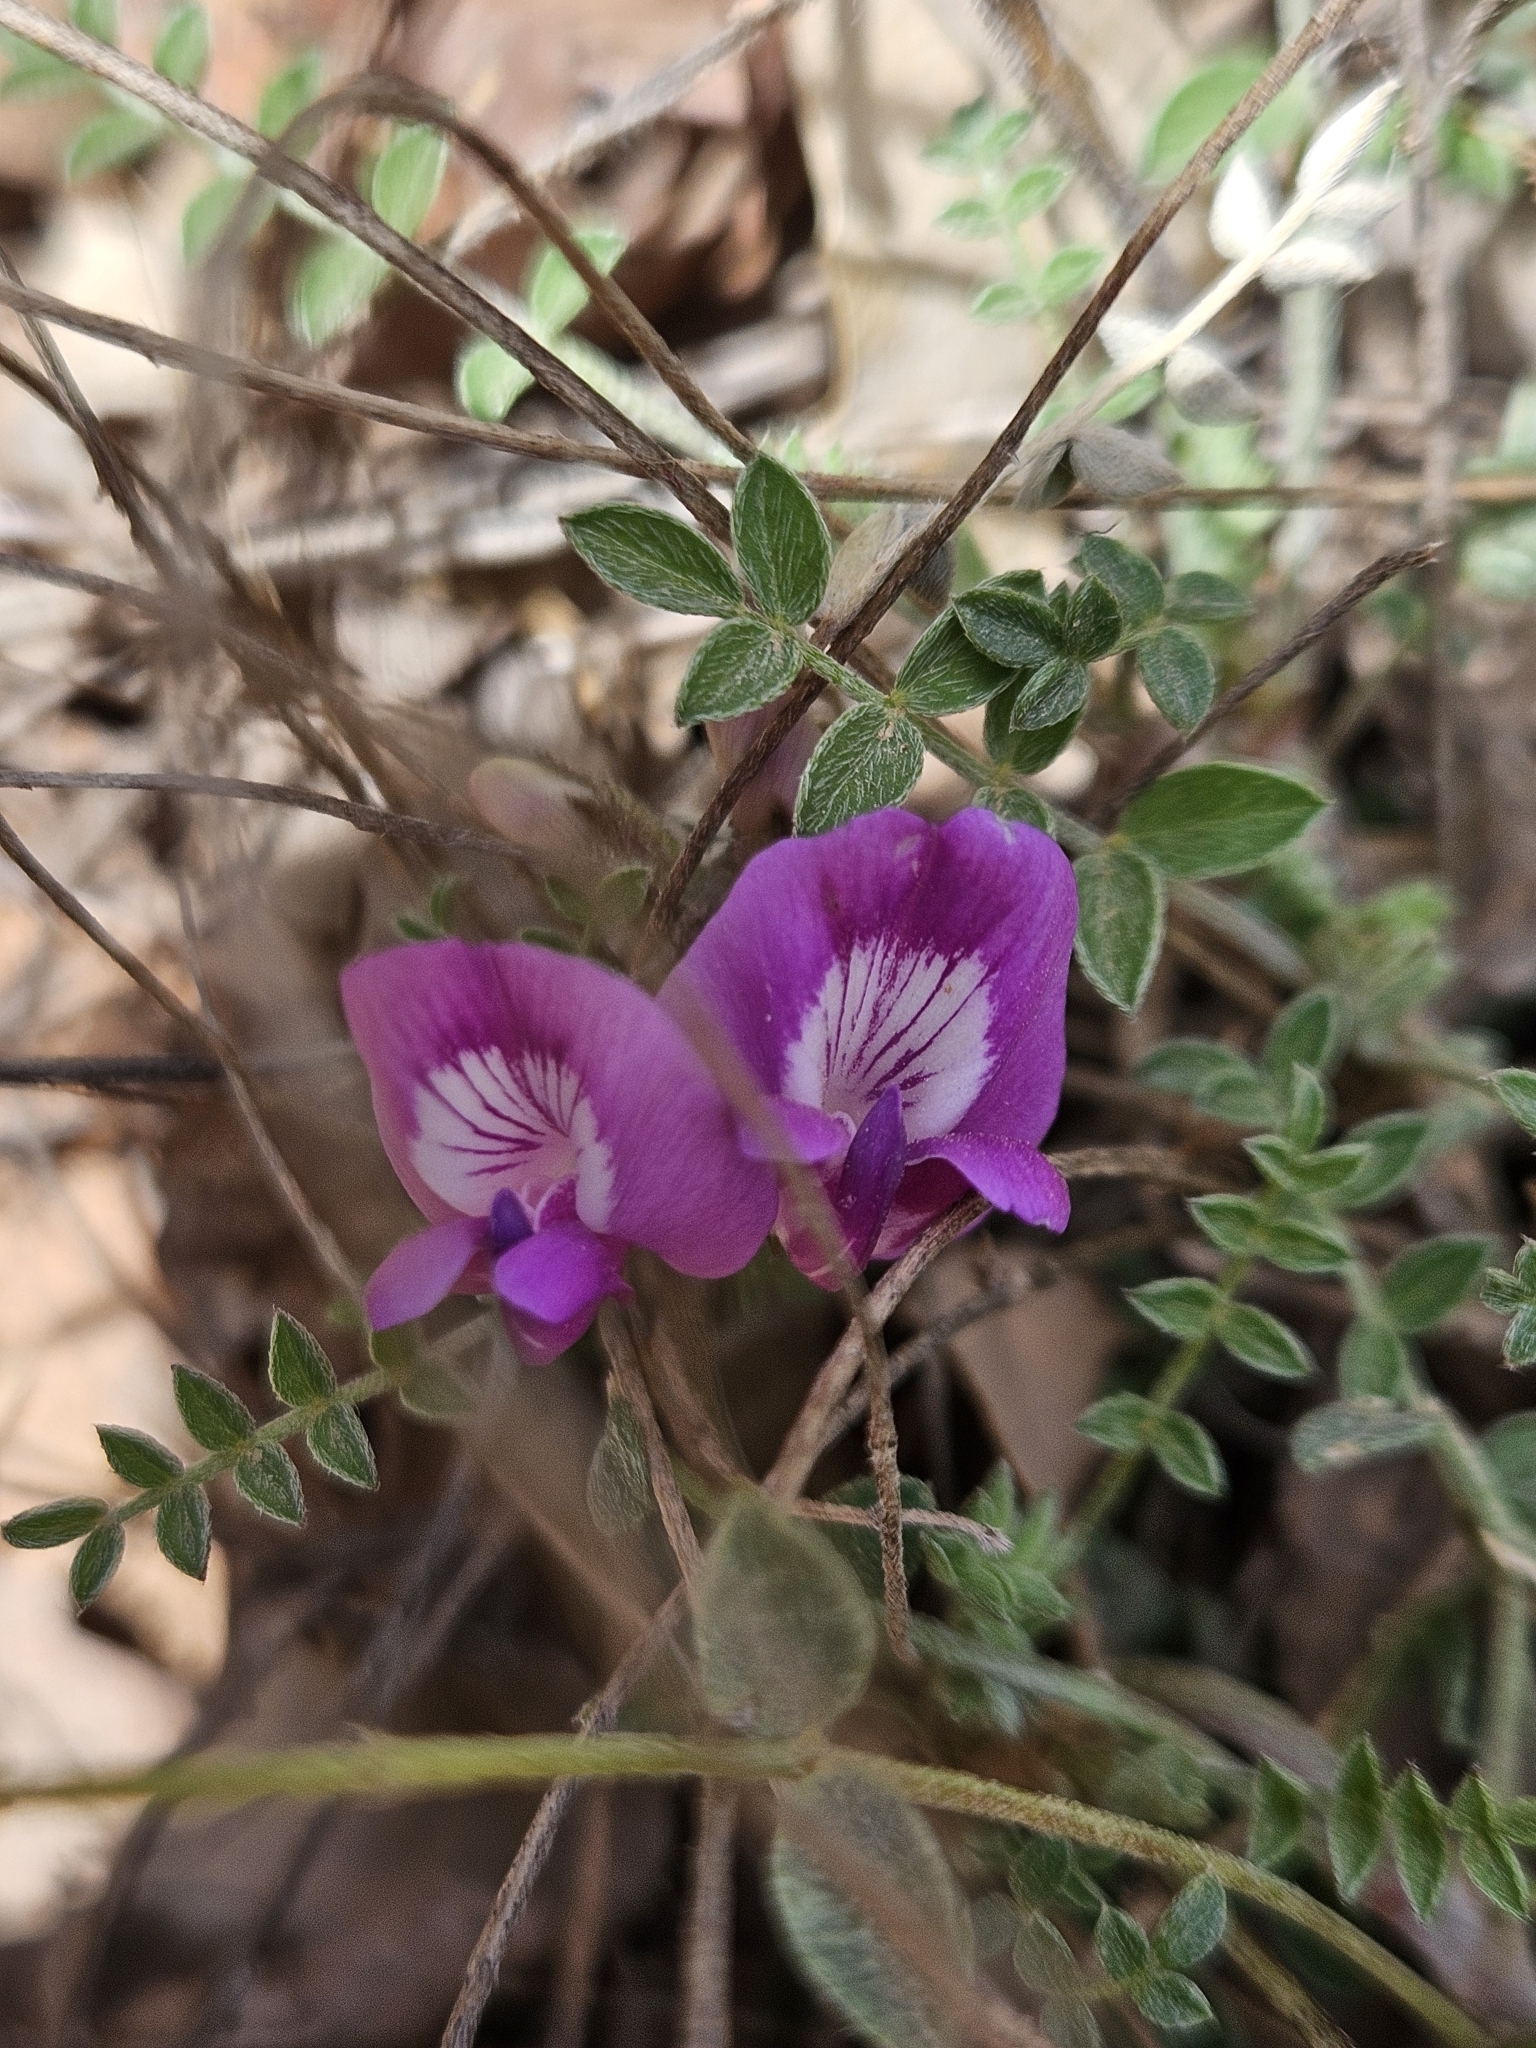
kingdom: Plantae
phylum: Tracheophyta
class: Magnoliopsida
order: Fabales
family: Fabaceae
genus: Astragalus
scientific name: Astragalus zionis
